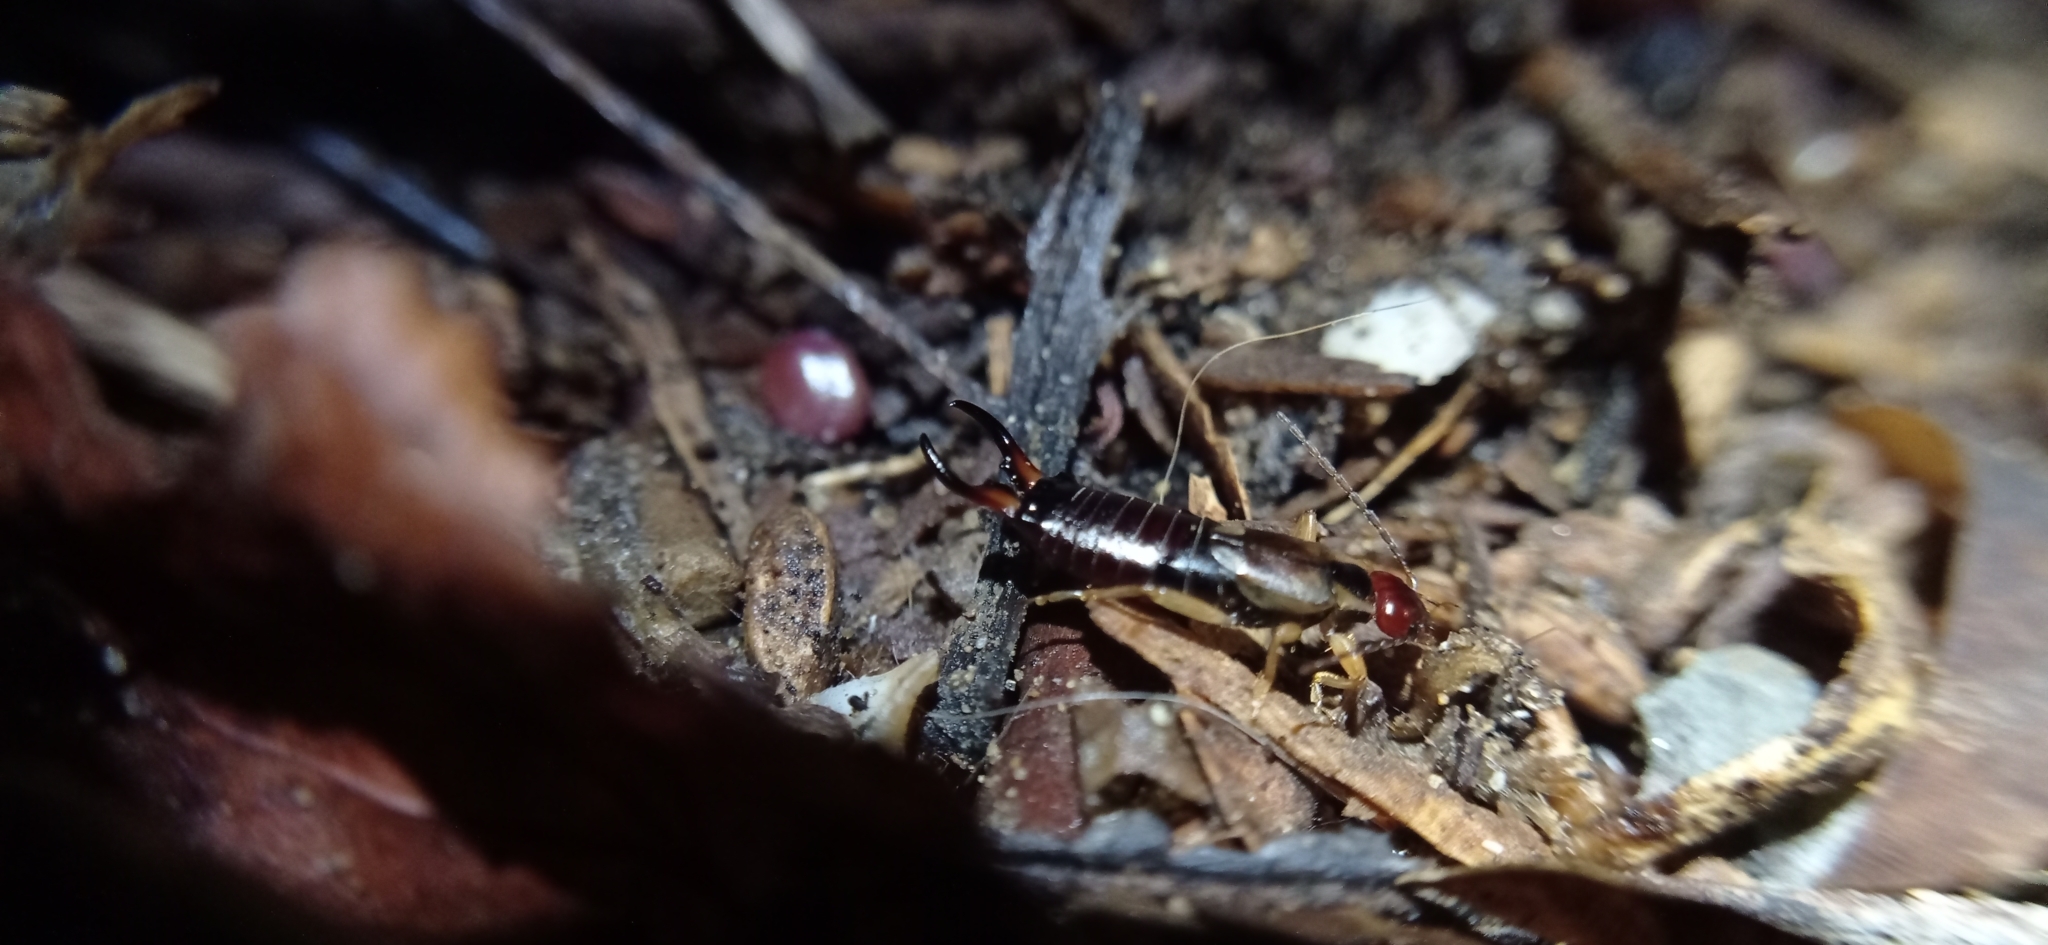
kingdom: Animalia
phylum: Arthropoda
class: Insecta
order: Dermaptera
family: Forficulidae
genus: Forficula
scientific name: Forficula
